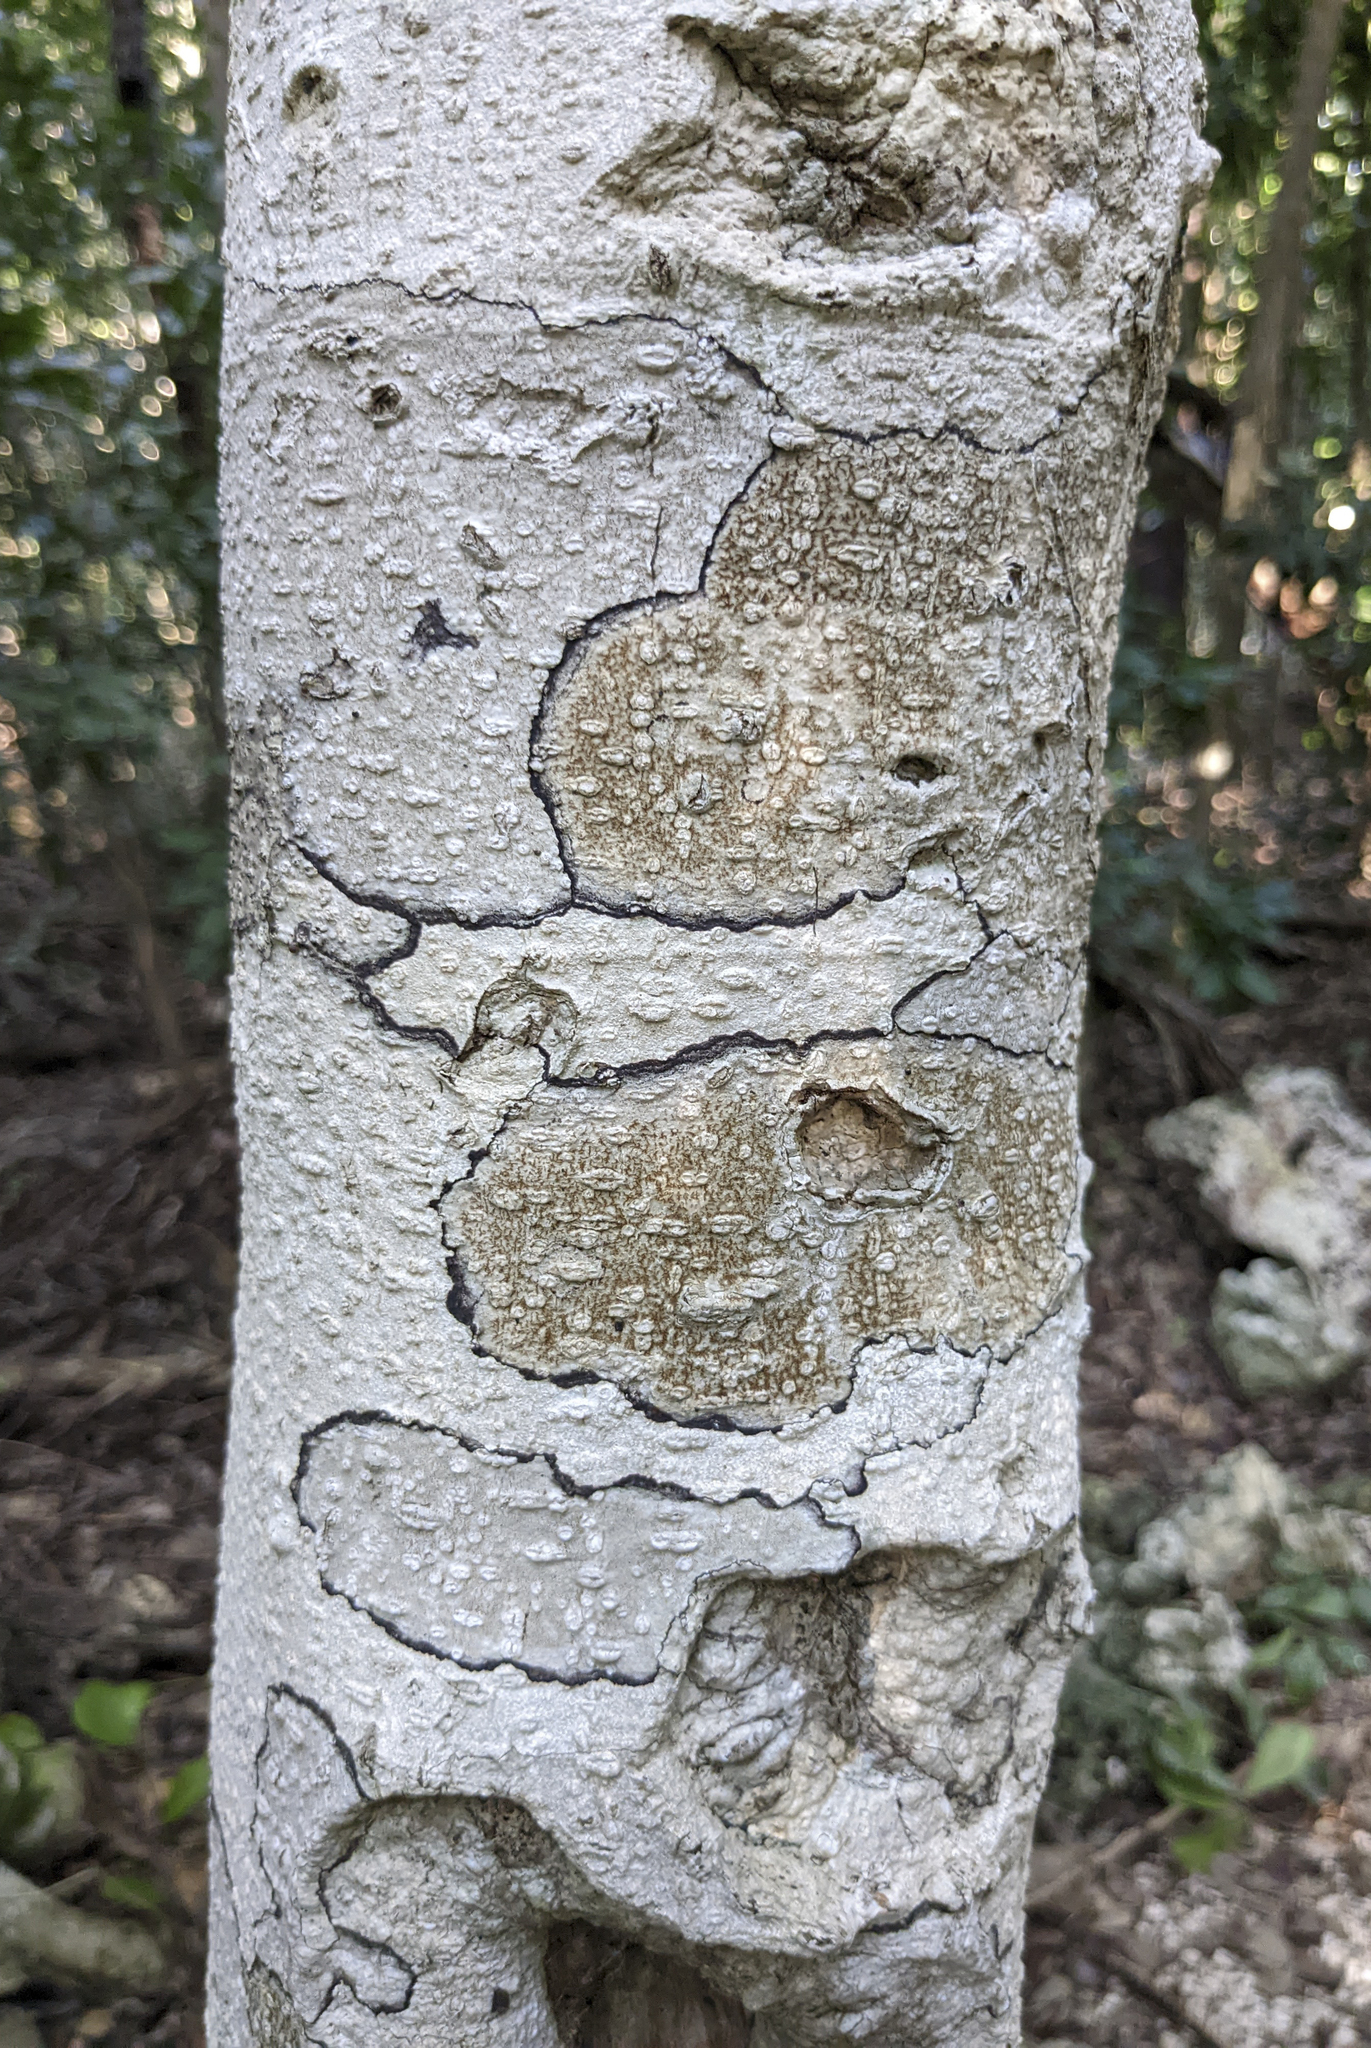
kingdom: Plantae
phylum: Tracheophyta
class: Magnoliopsida
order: Malpighiales
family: Putranjivaceae
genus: Drypetes
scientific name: Drypetes diversifolia
